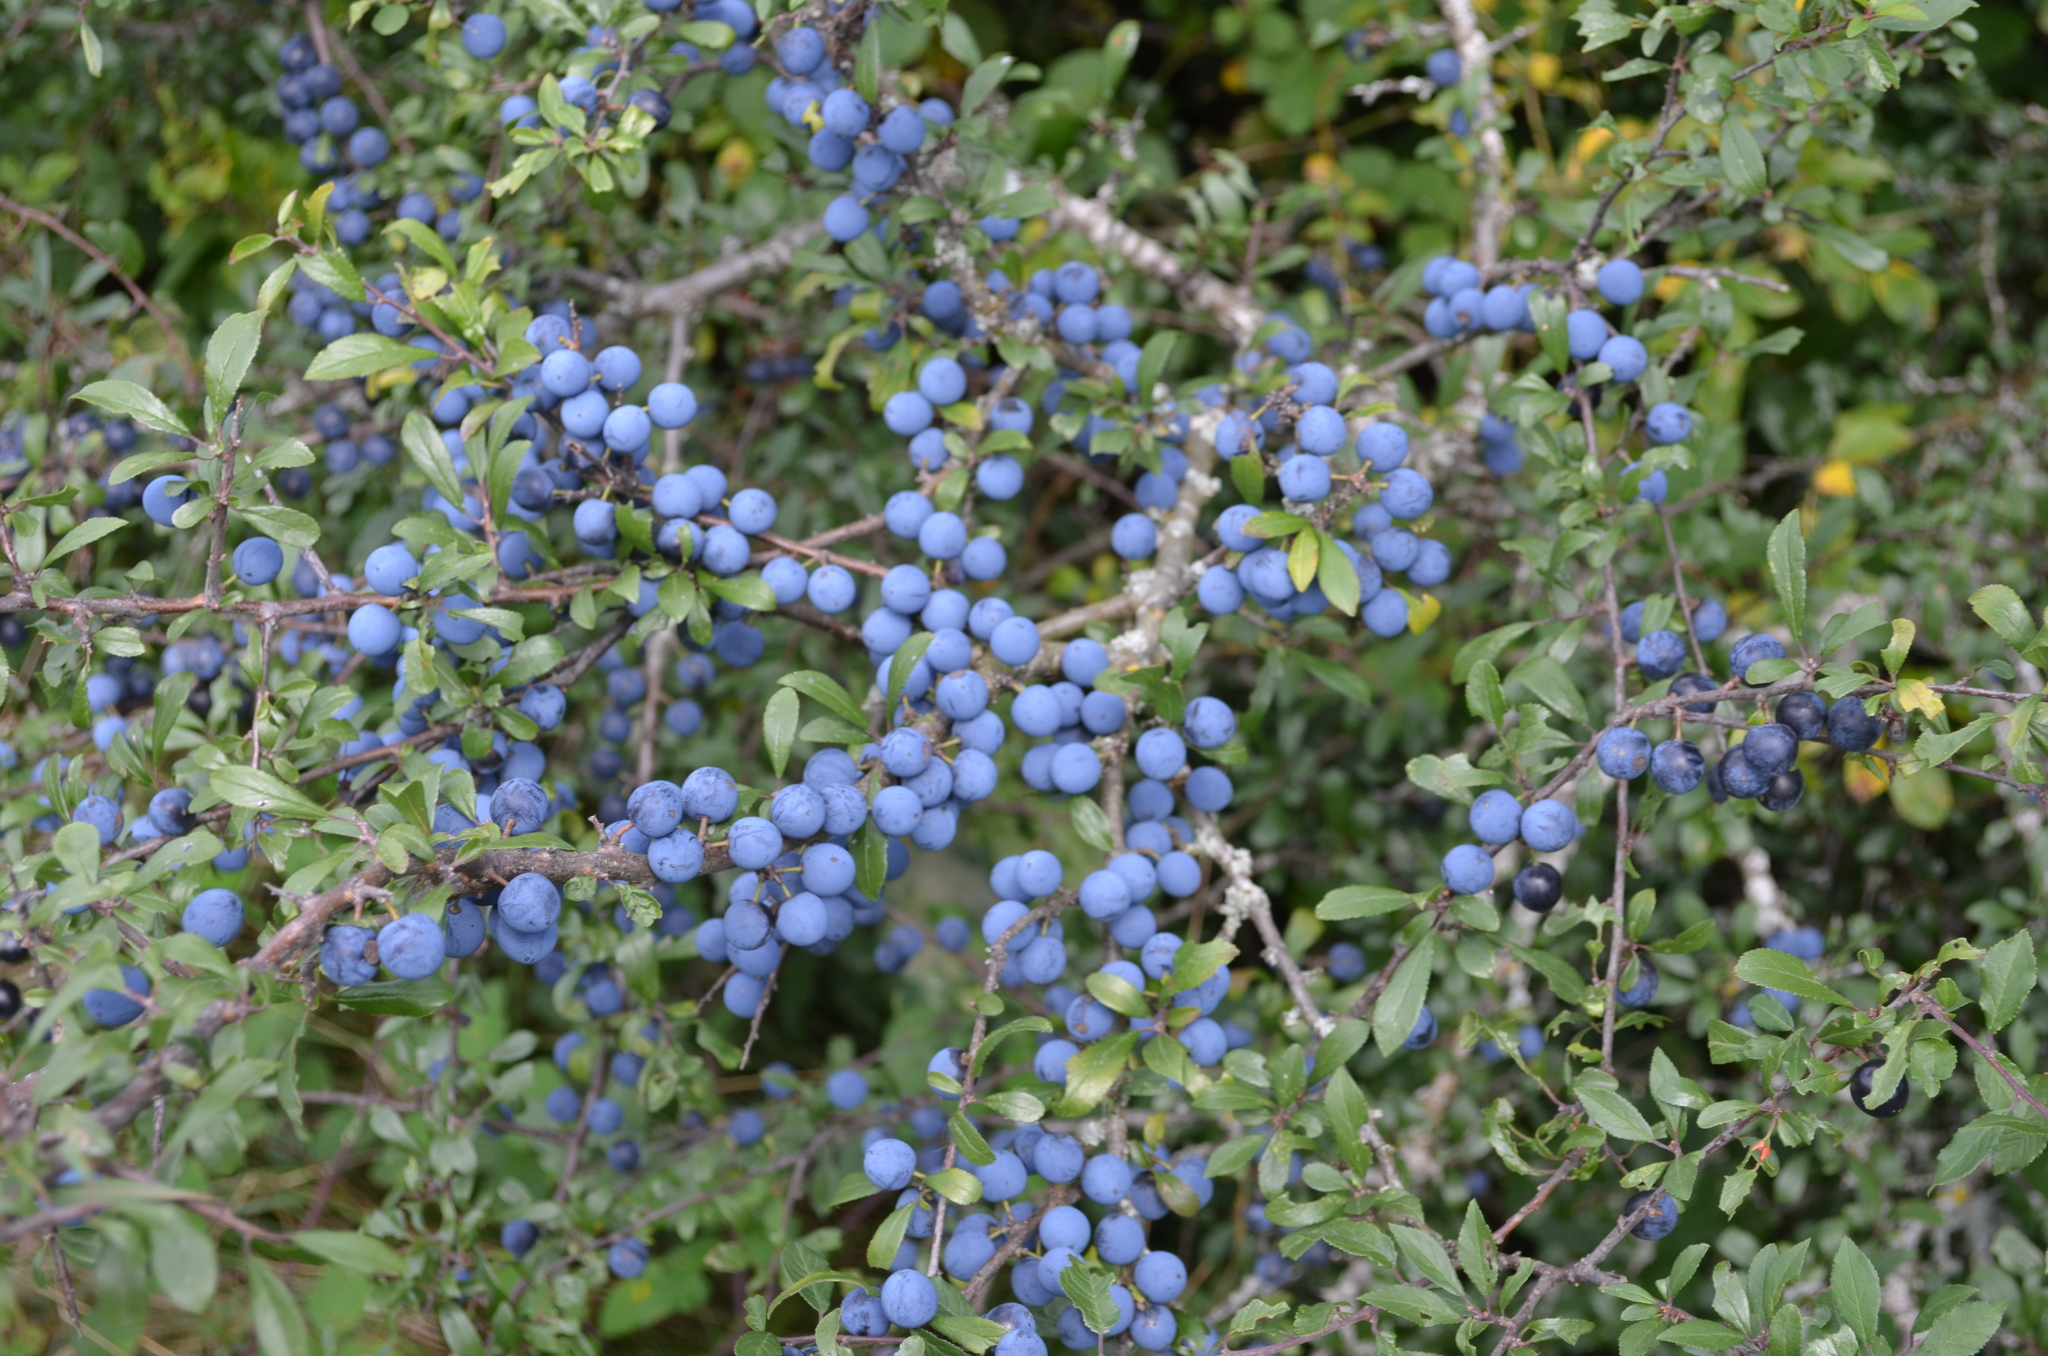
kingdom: Plantae
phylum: Tracheophyta
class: Magnoliopsida
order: Rosales
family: Rosaceae
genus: Prunus
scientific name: Prunus spinosa
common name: Blackthorn
